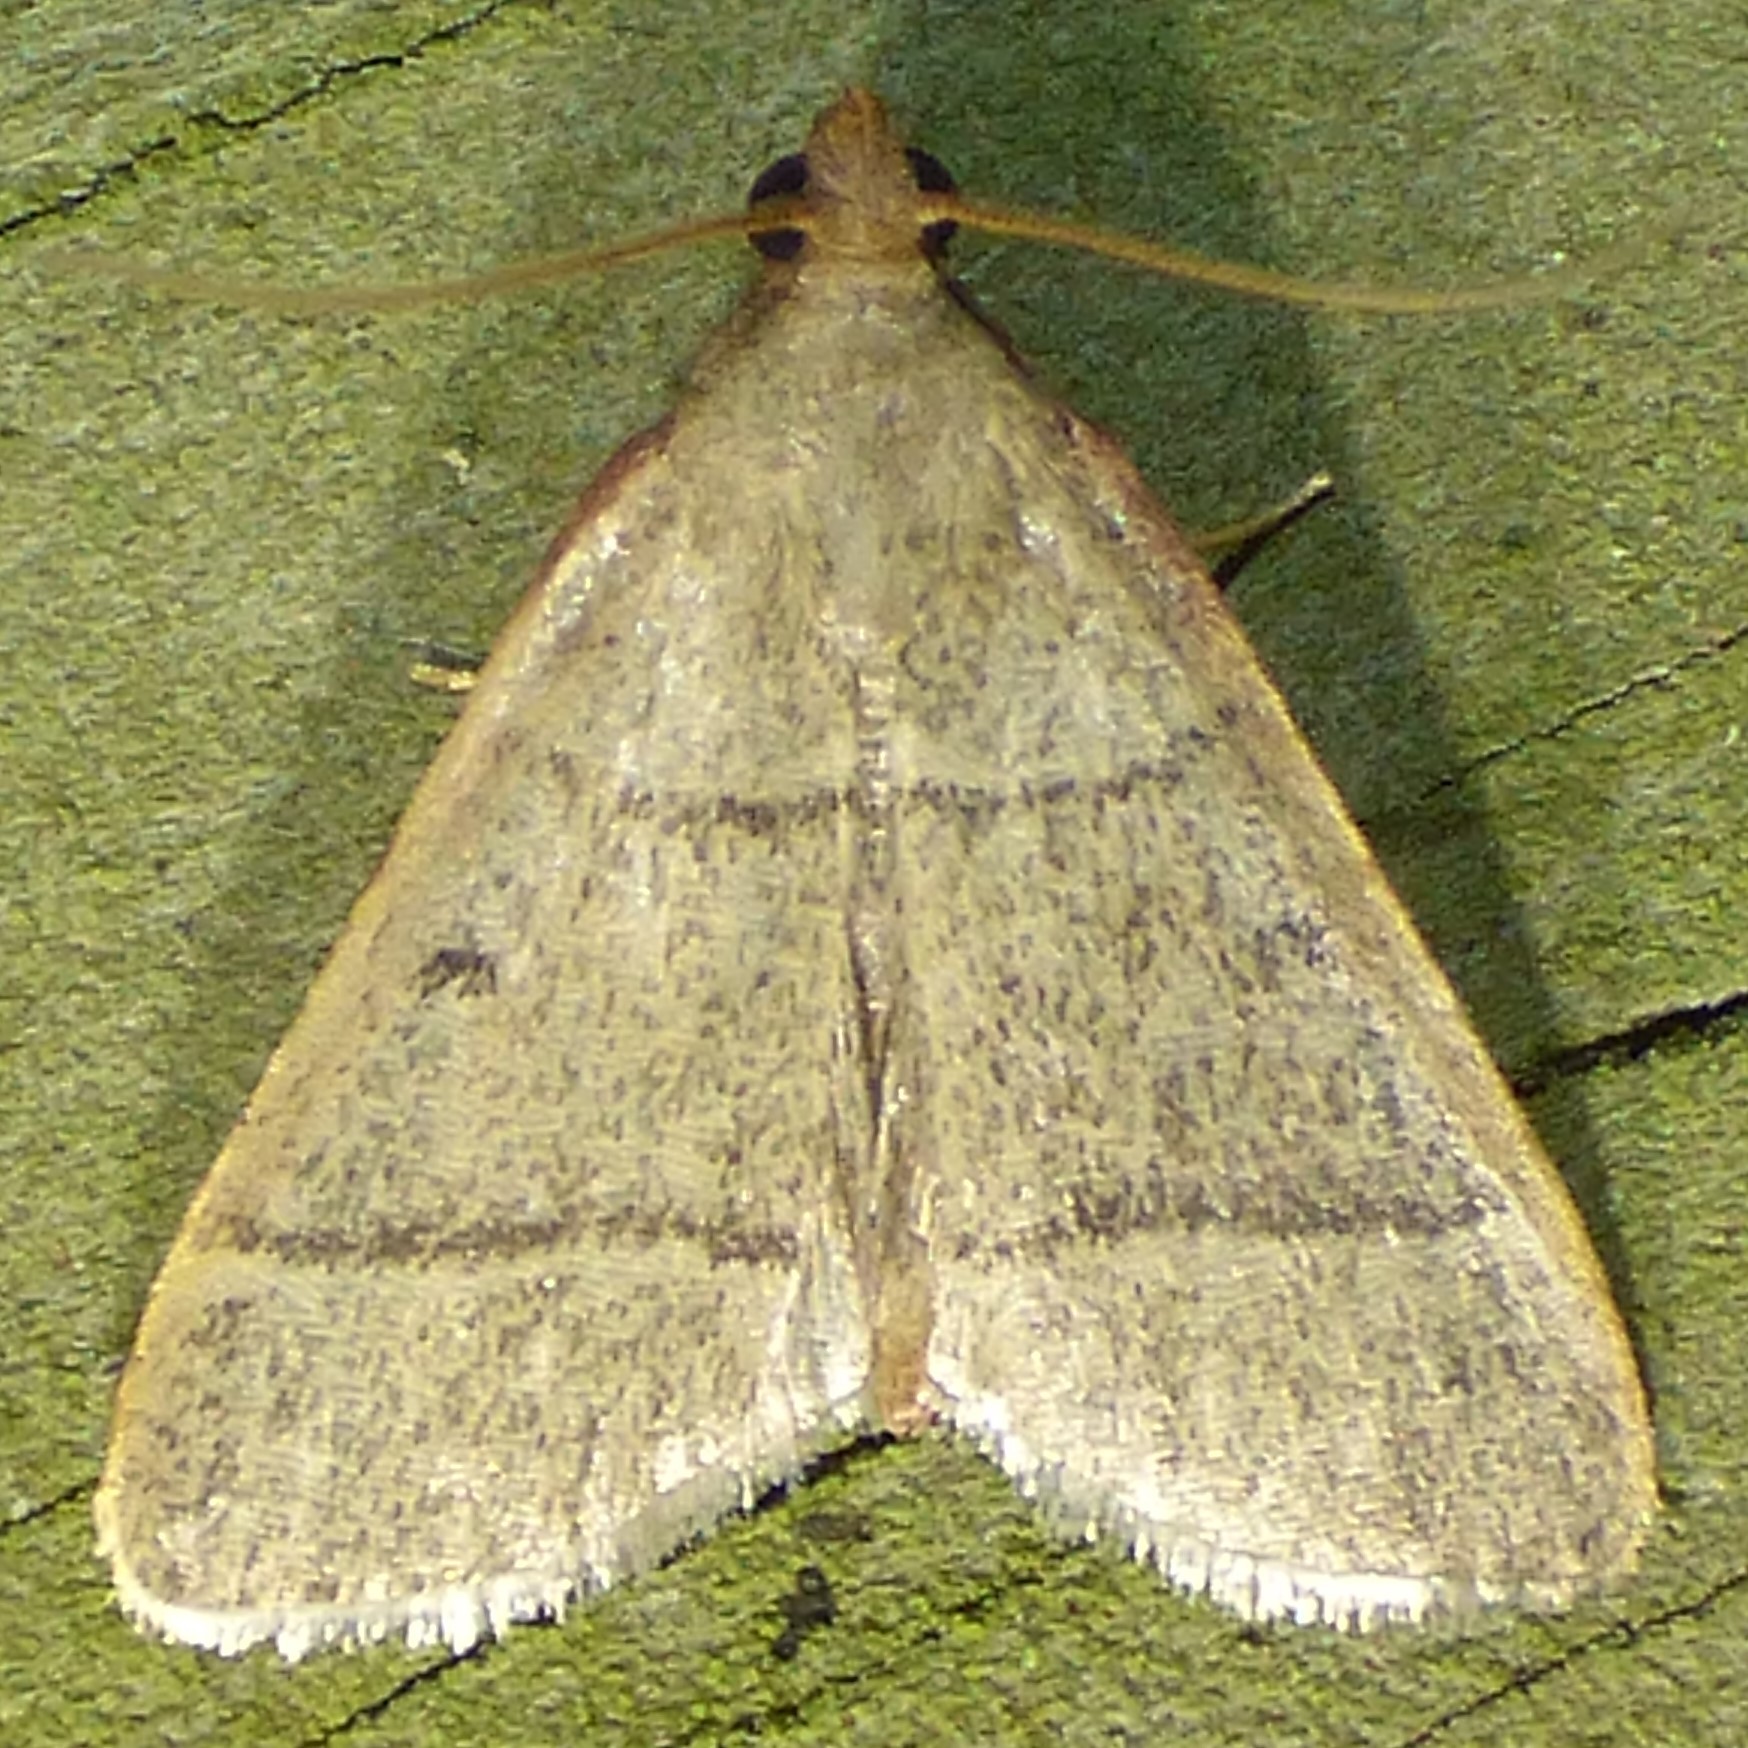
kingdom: Animalia
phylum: Arthropoda
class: Insecta
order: Lepidoptera
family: Pyralidae
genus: Hypsopygia
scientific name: Hypsopygia nostralis
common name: Southern hayworm moth
